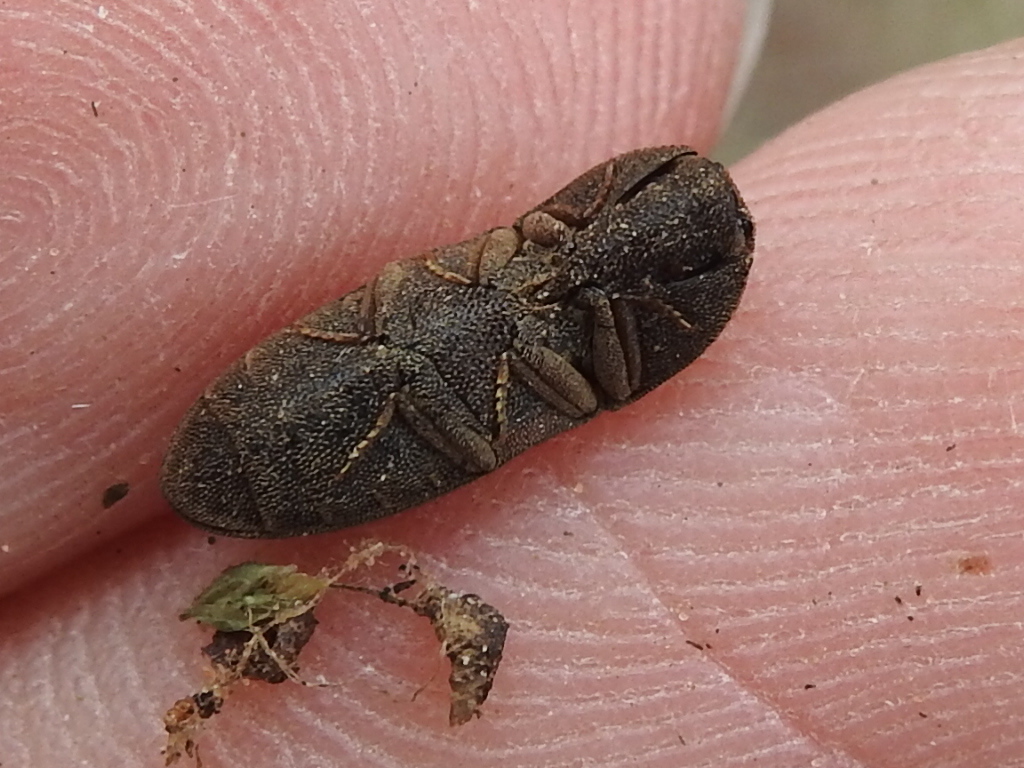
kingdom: Animalia
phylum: Arthropoda
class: Insecta
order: Coleoptera
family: Elateridae
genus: Agrypnus
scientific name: Agrypnus rectangularis
